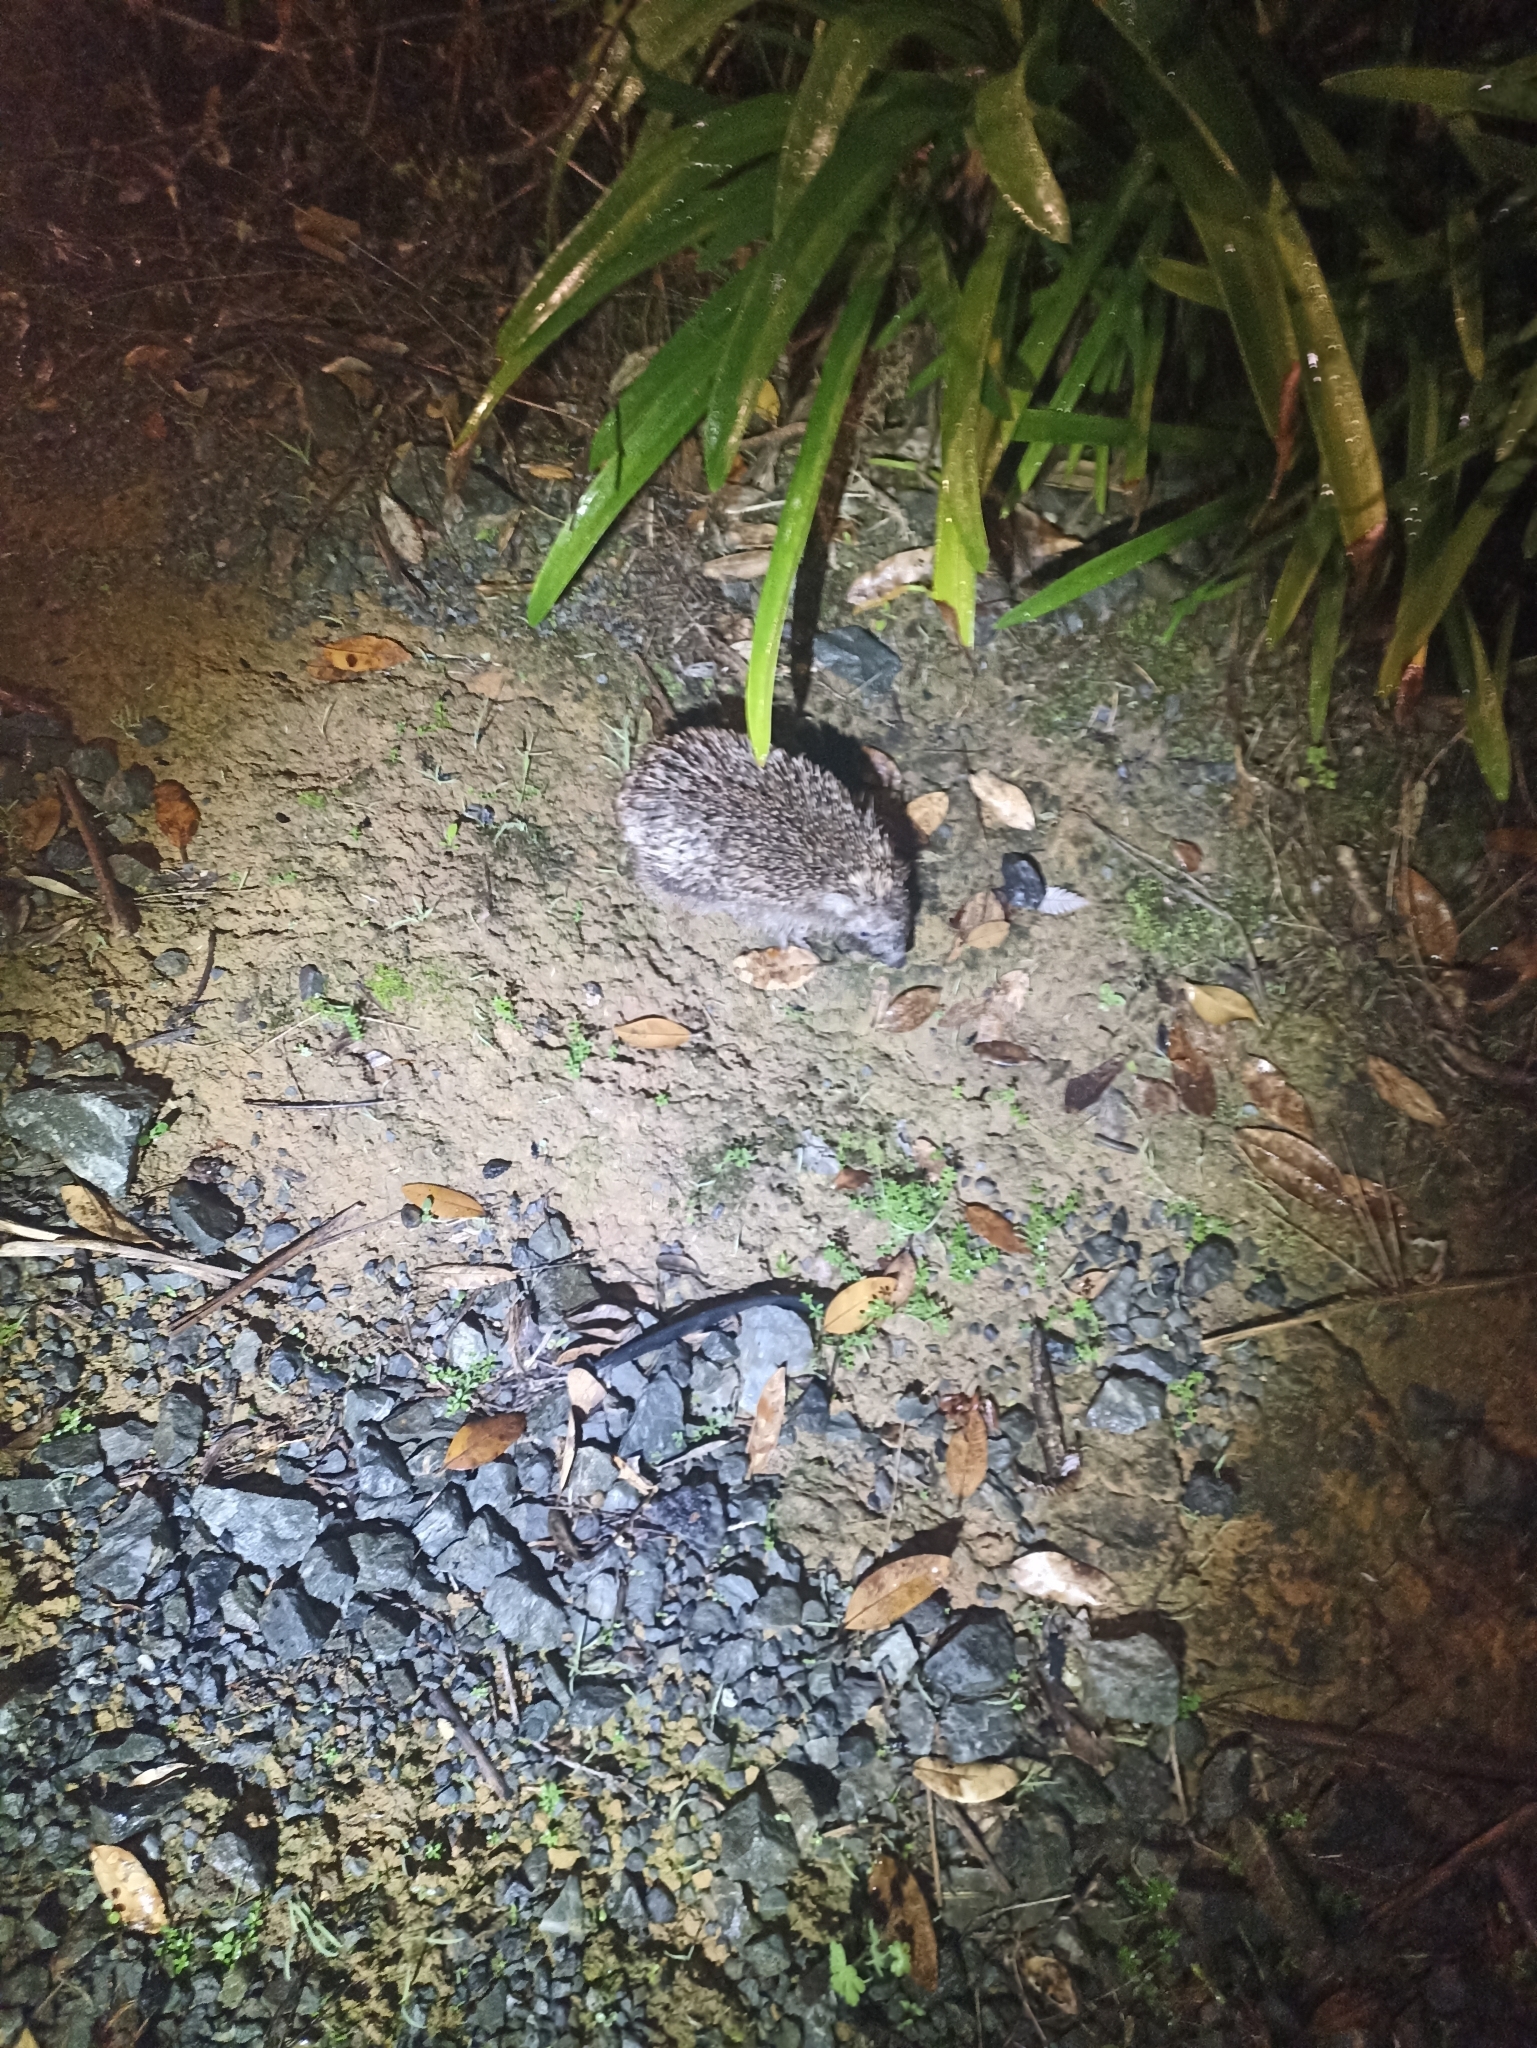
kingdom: Animalia
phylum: Chordata
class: Mammalia
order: Erinaceomorpha
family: Erinaceidae
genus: Erinaceus
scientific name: Erinaceus europaeus
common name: West european hedgehog
